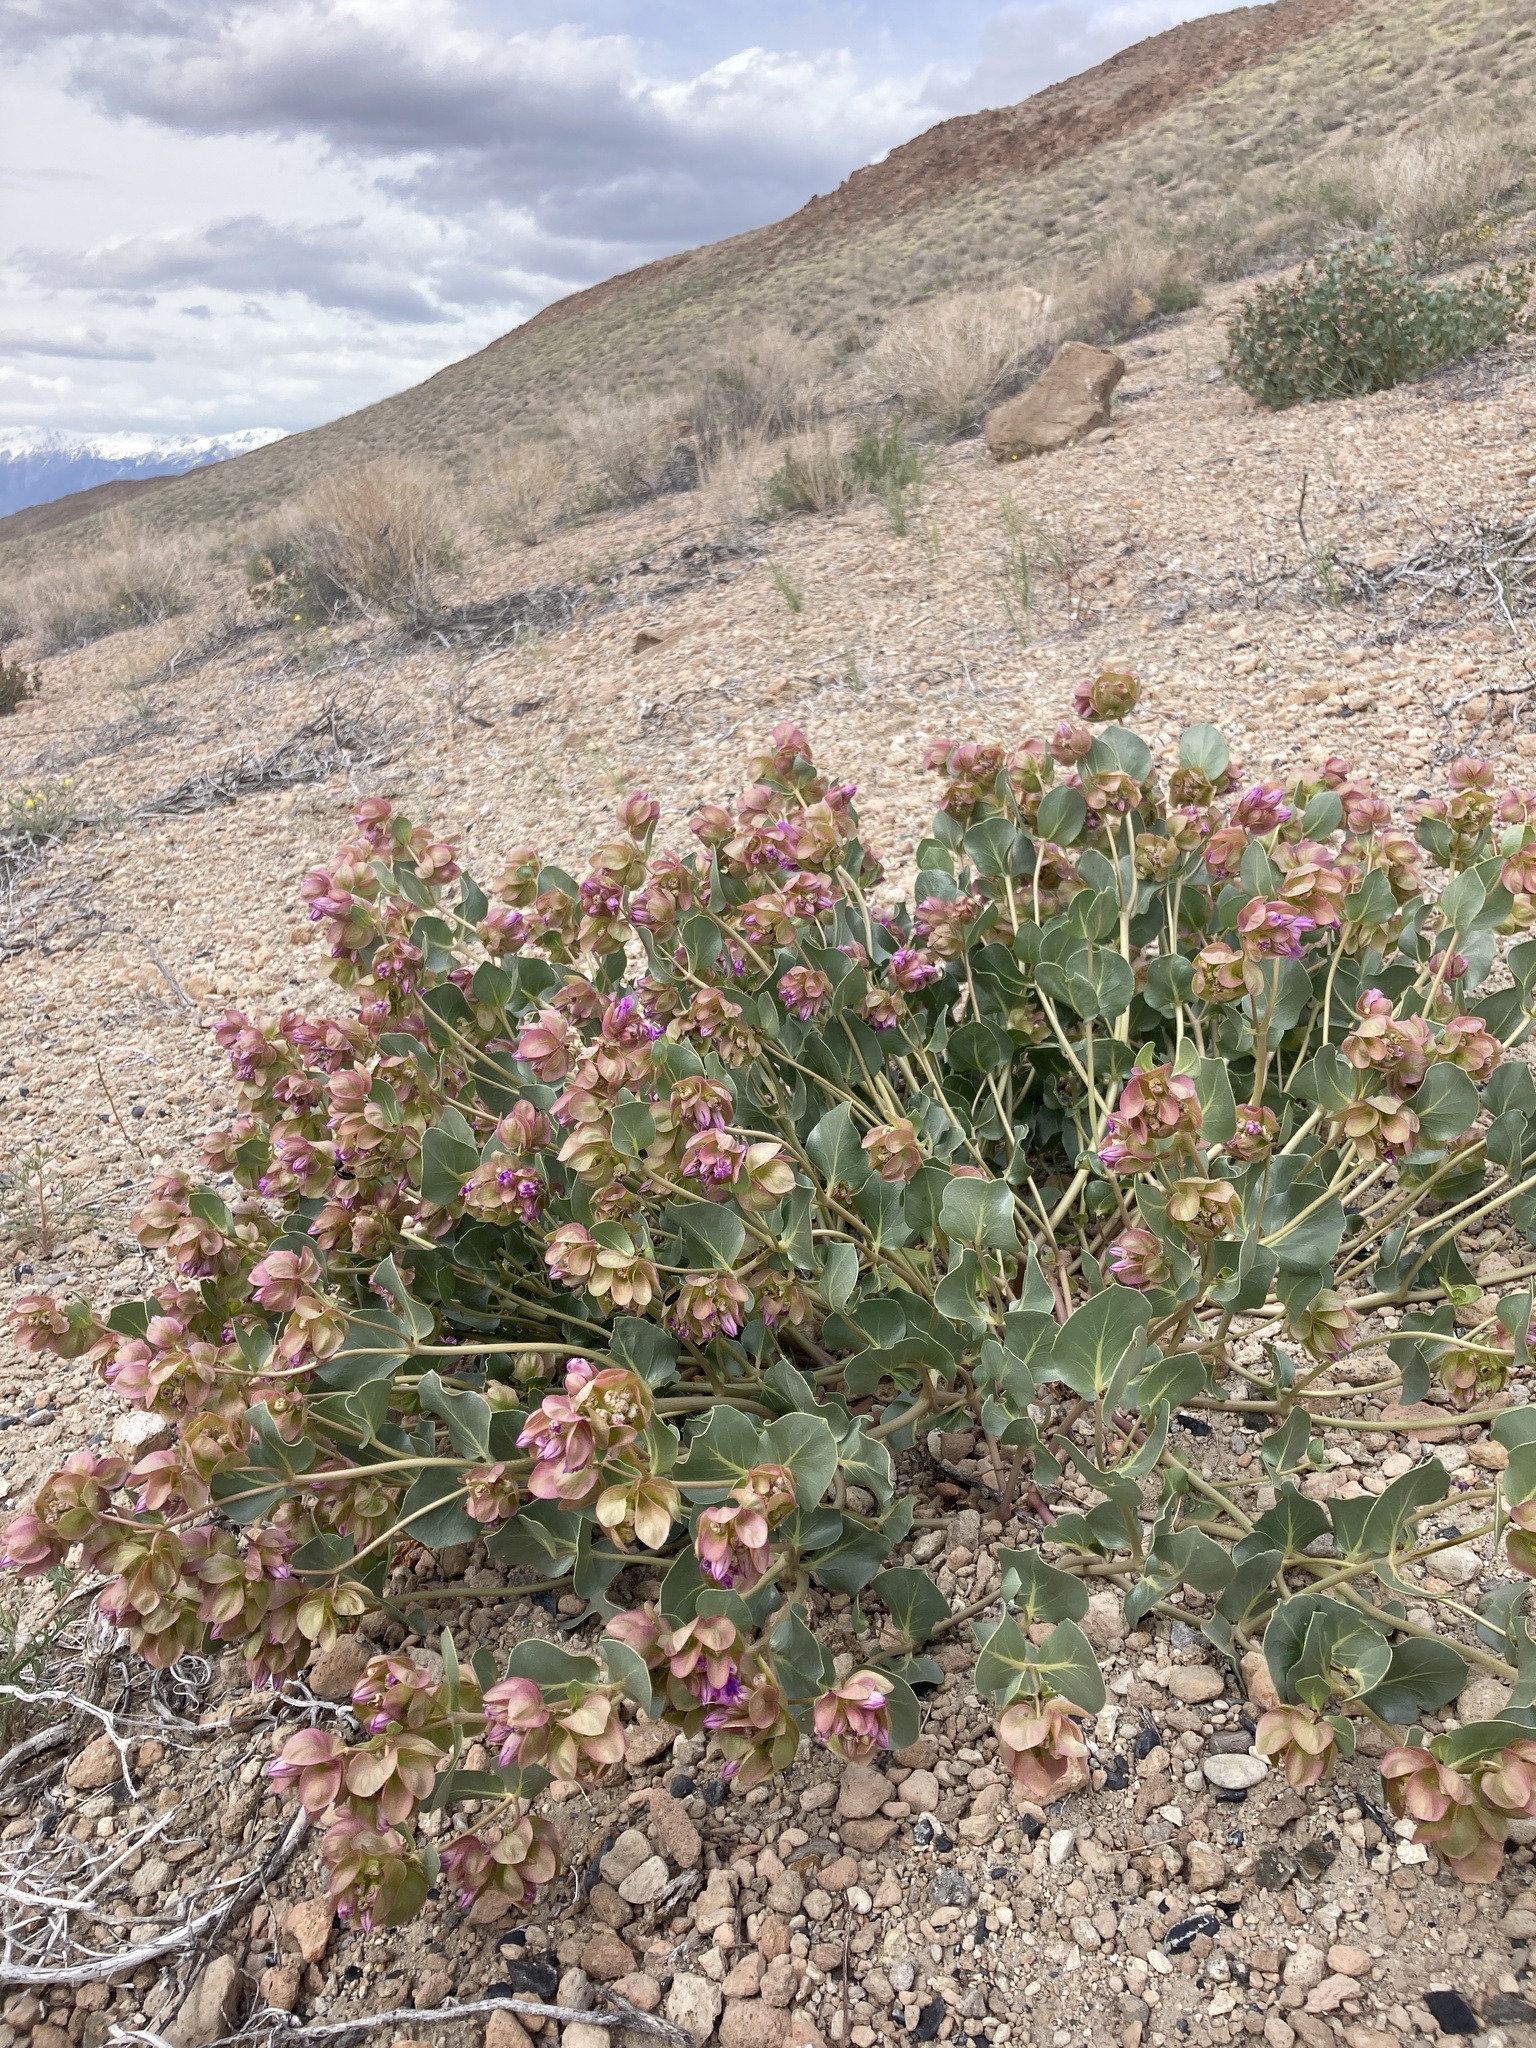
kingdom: Plantae
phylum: Tracheophyta
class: Magnoliopsida
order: Caryophyllales
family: Nyctaginaceae
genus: Mirabilis
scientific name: Mirabilis alipes
